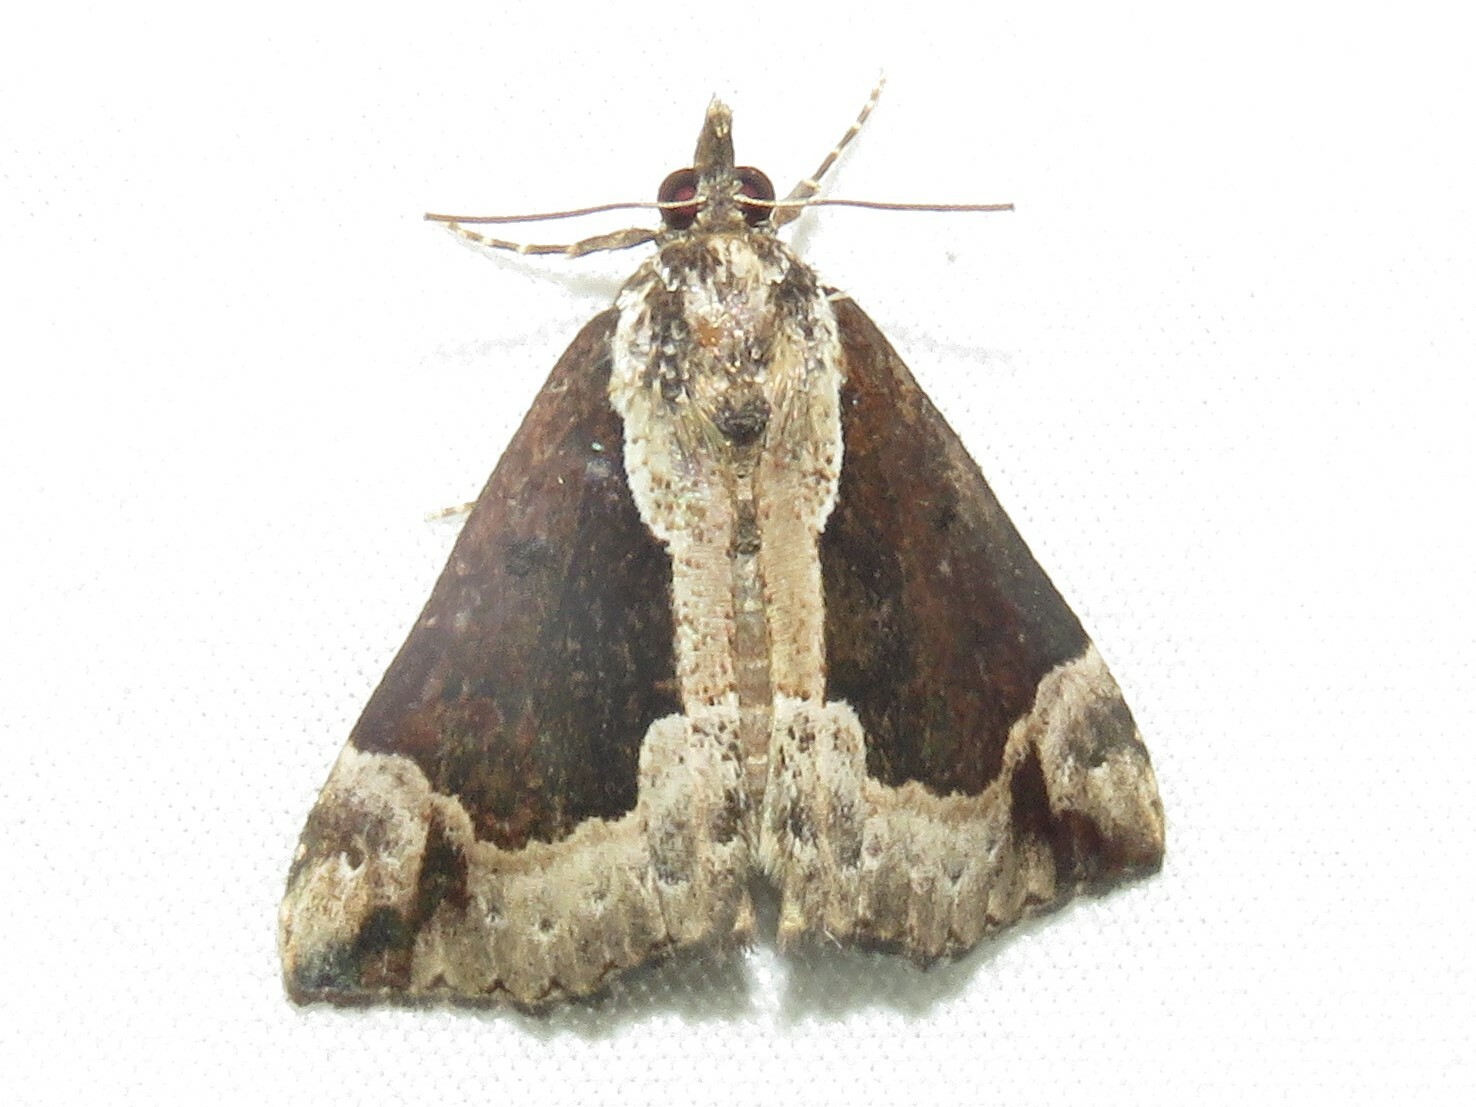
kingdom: Animalia
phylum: Arthropoda
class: Insecta
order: Lepidoptera
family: Erebidae
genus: Hypena
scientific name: Hypena baltimoralis
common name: Baltimore snout
